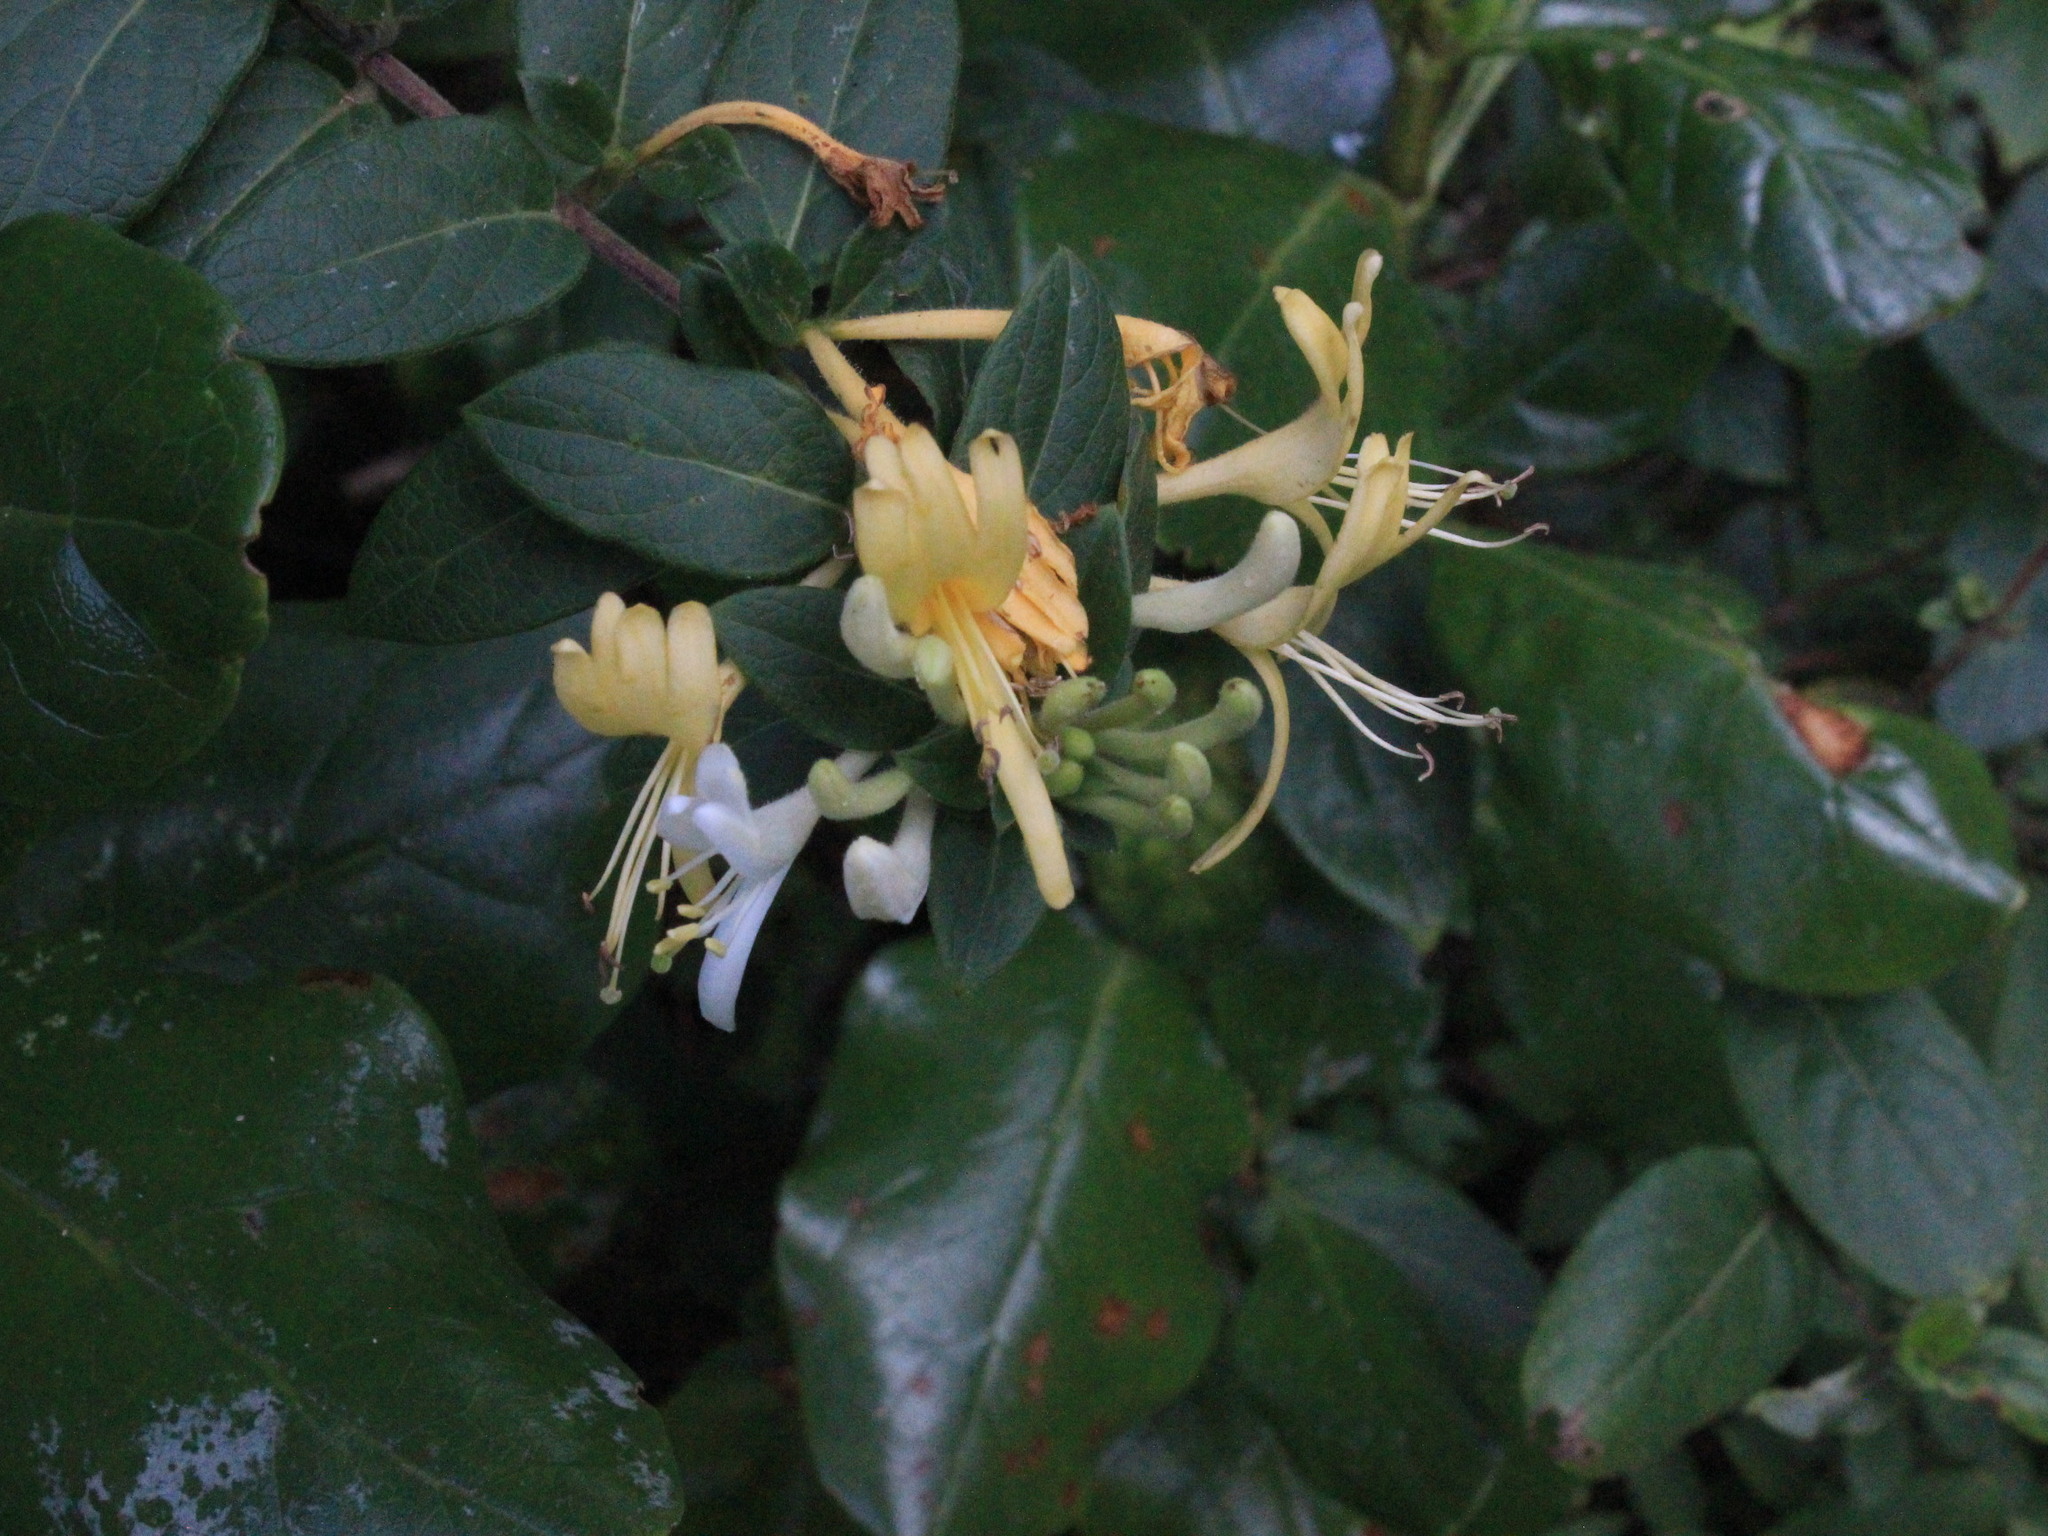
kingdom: Plantae
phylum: Tracheophyta
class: Magnoliopsida
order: Dipsacales
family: Caprifoliaceae
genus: Lonicera
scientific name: Lonicera japonica
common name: Japanese honeysuckle
